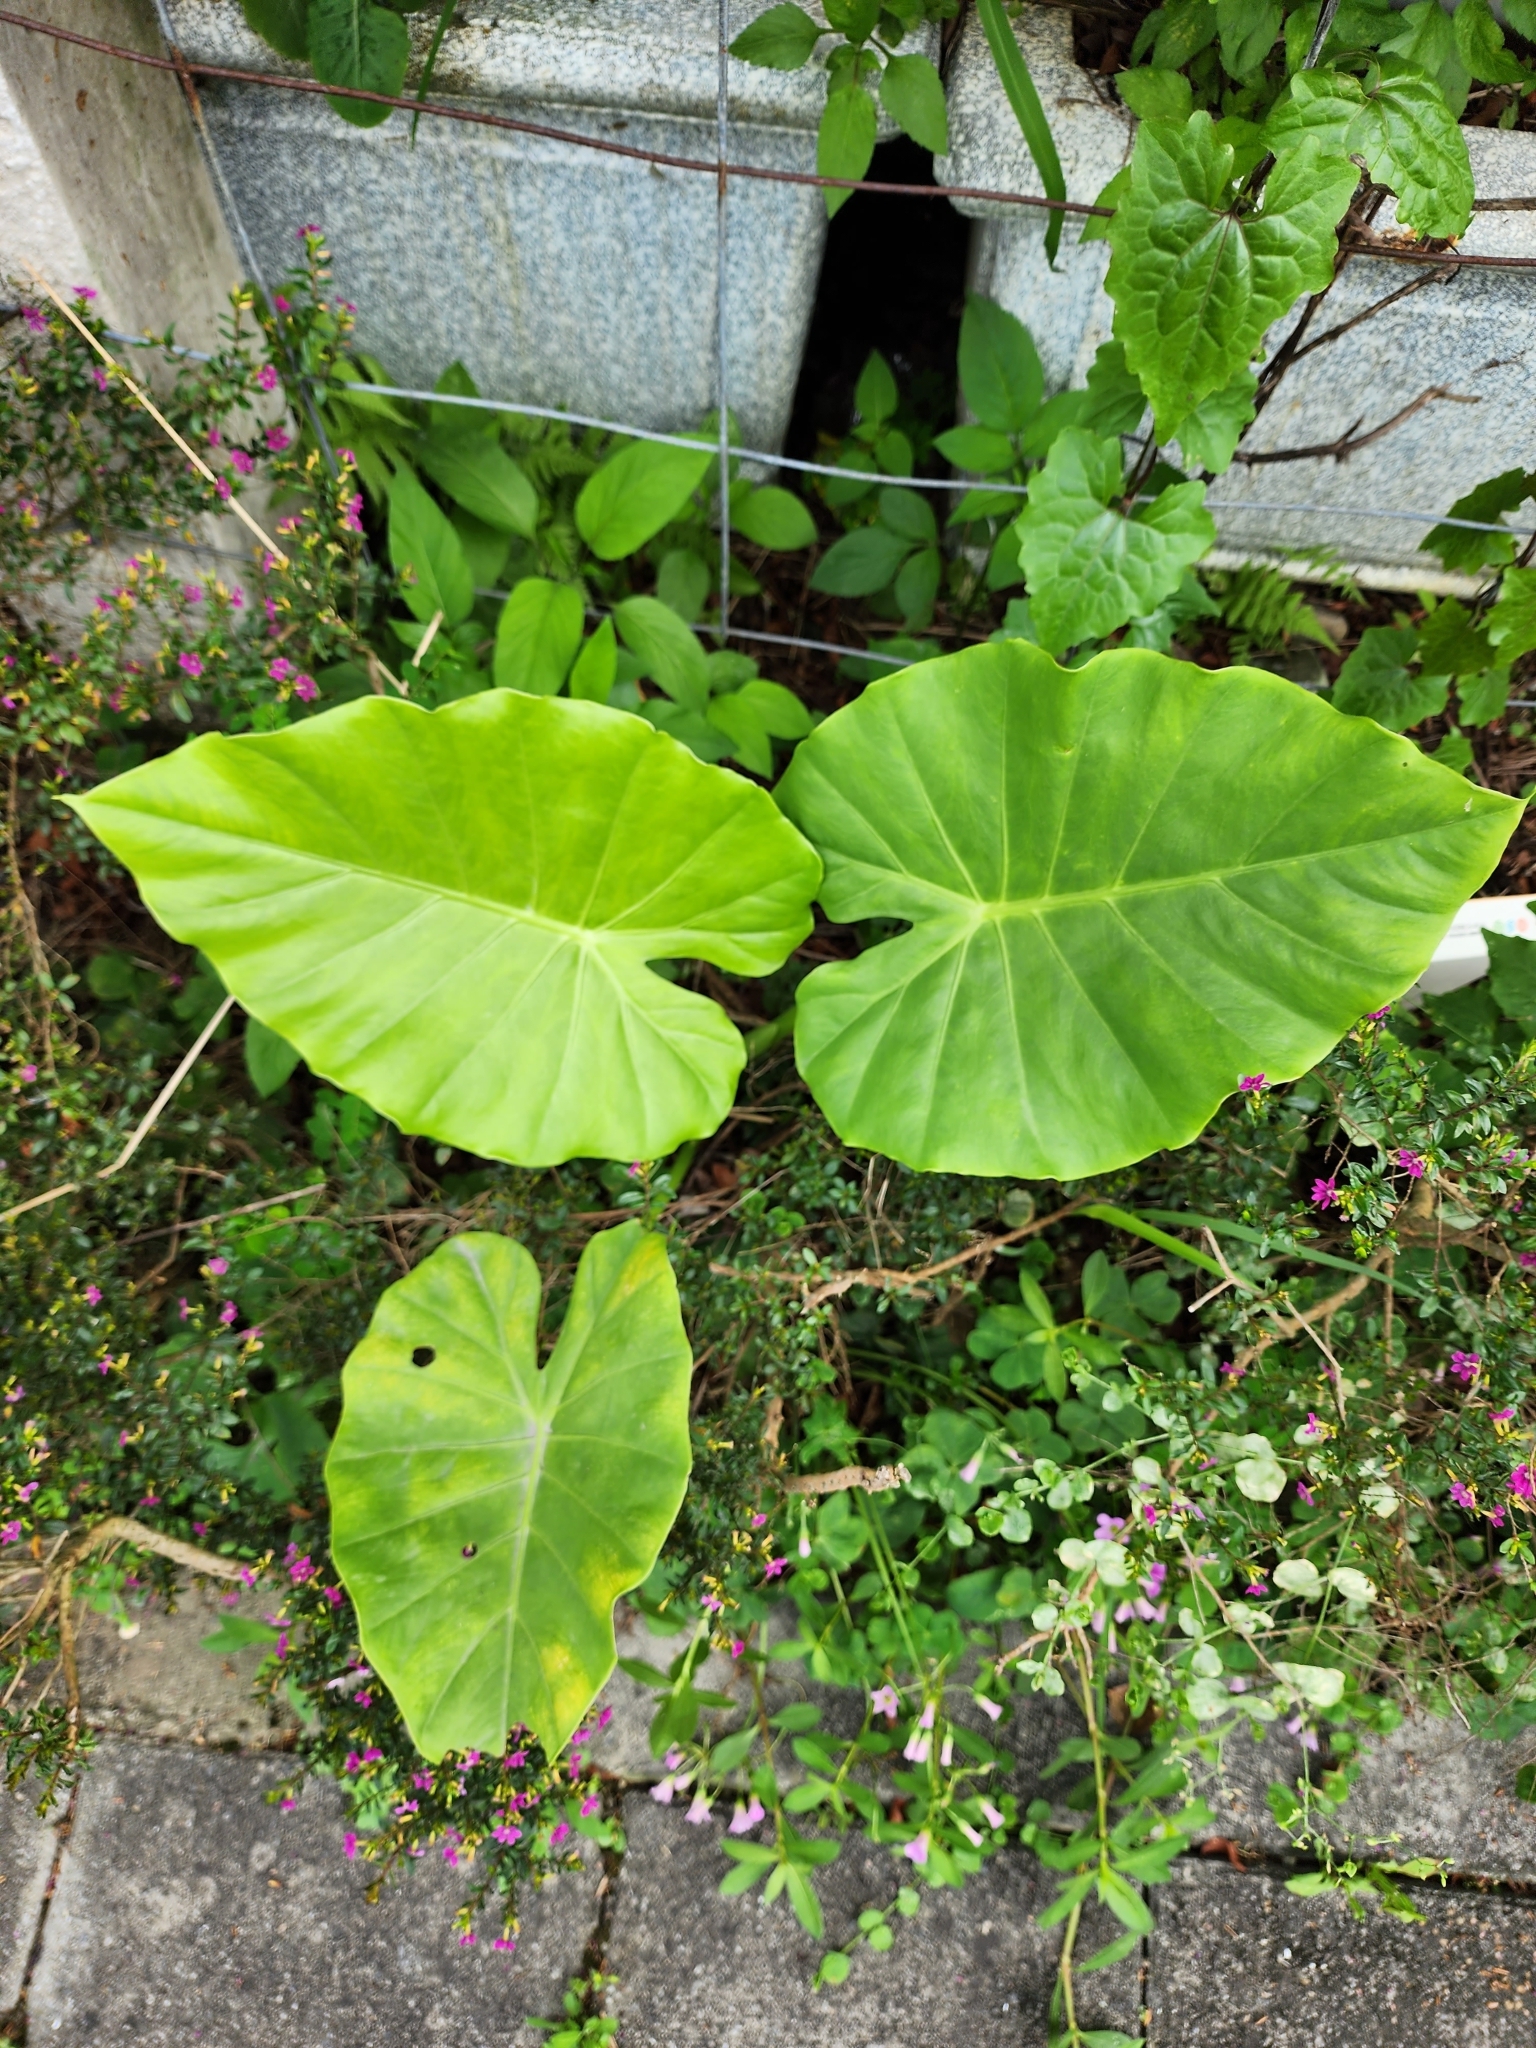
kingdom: Plantae
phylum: Tracheophyta
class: Liliopsida
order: Alismatales
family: Araceae
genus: Alocasia
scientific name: Alocasia odora
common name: Asian taro
